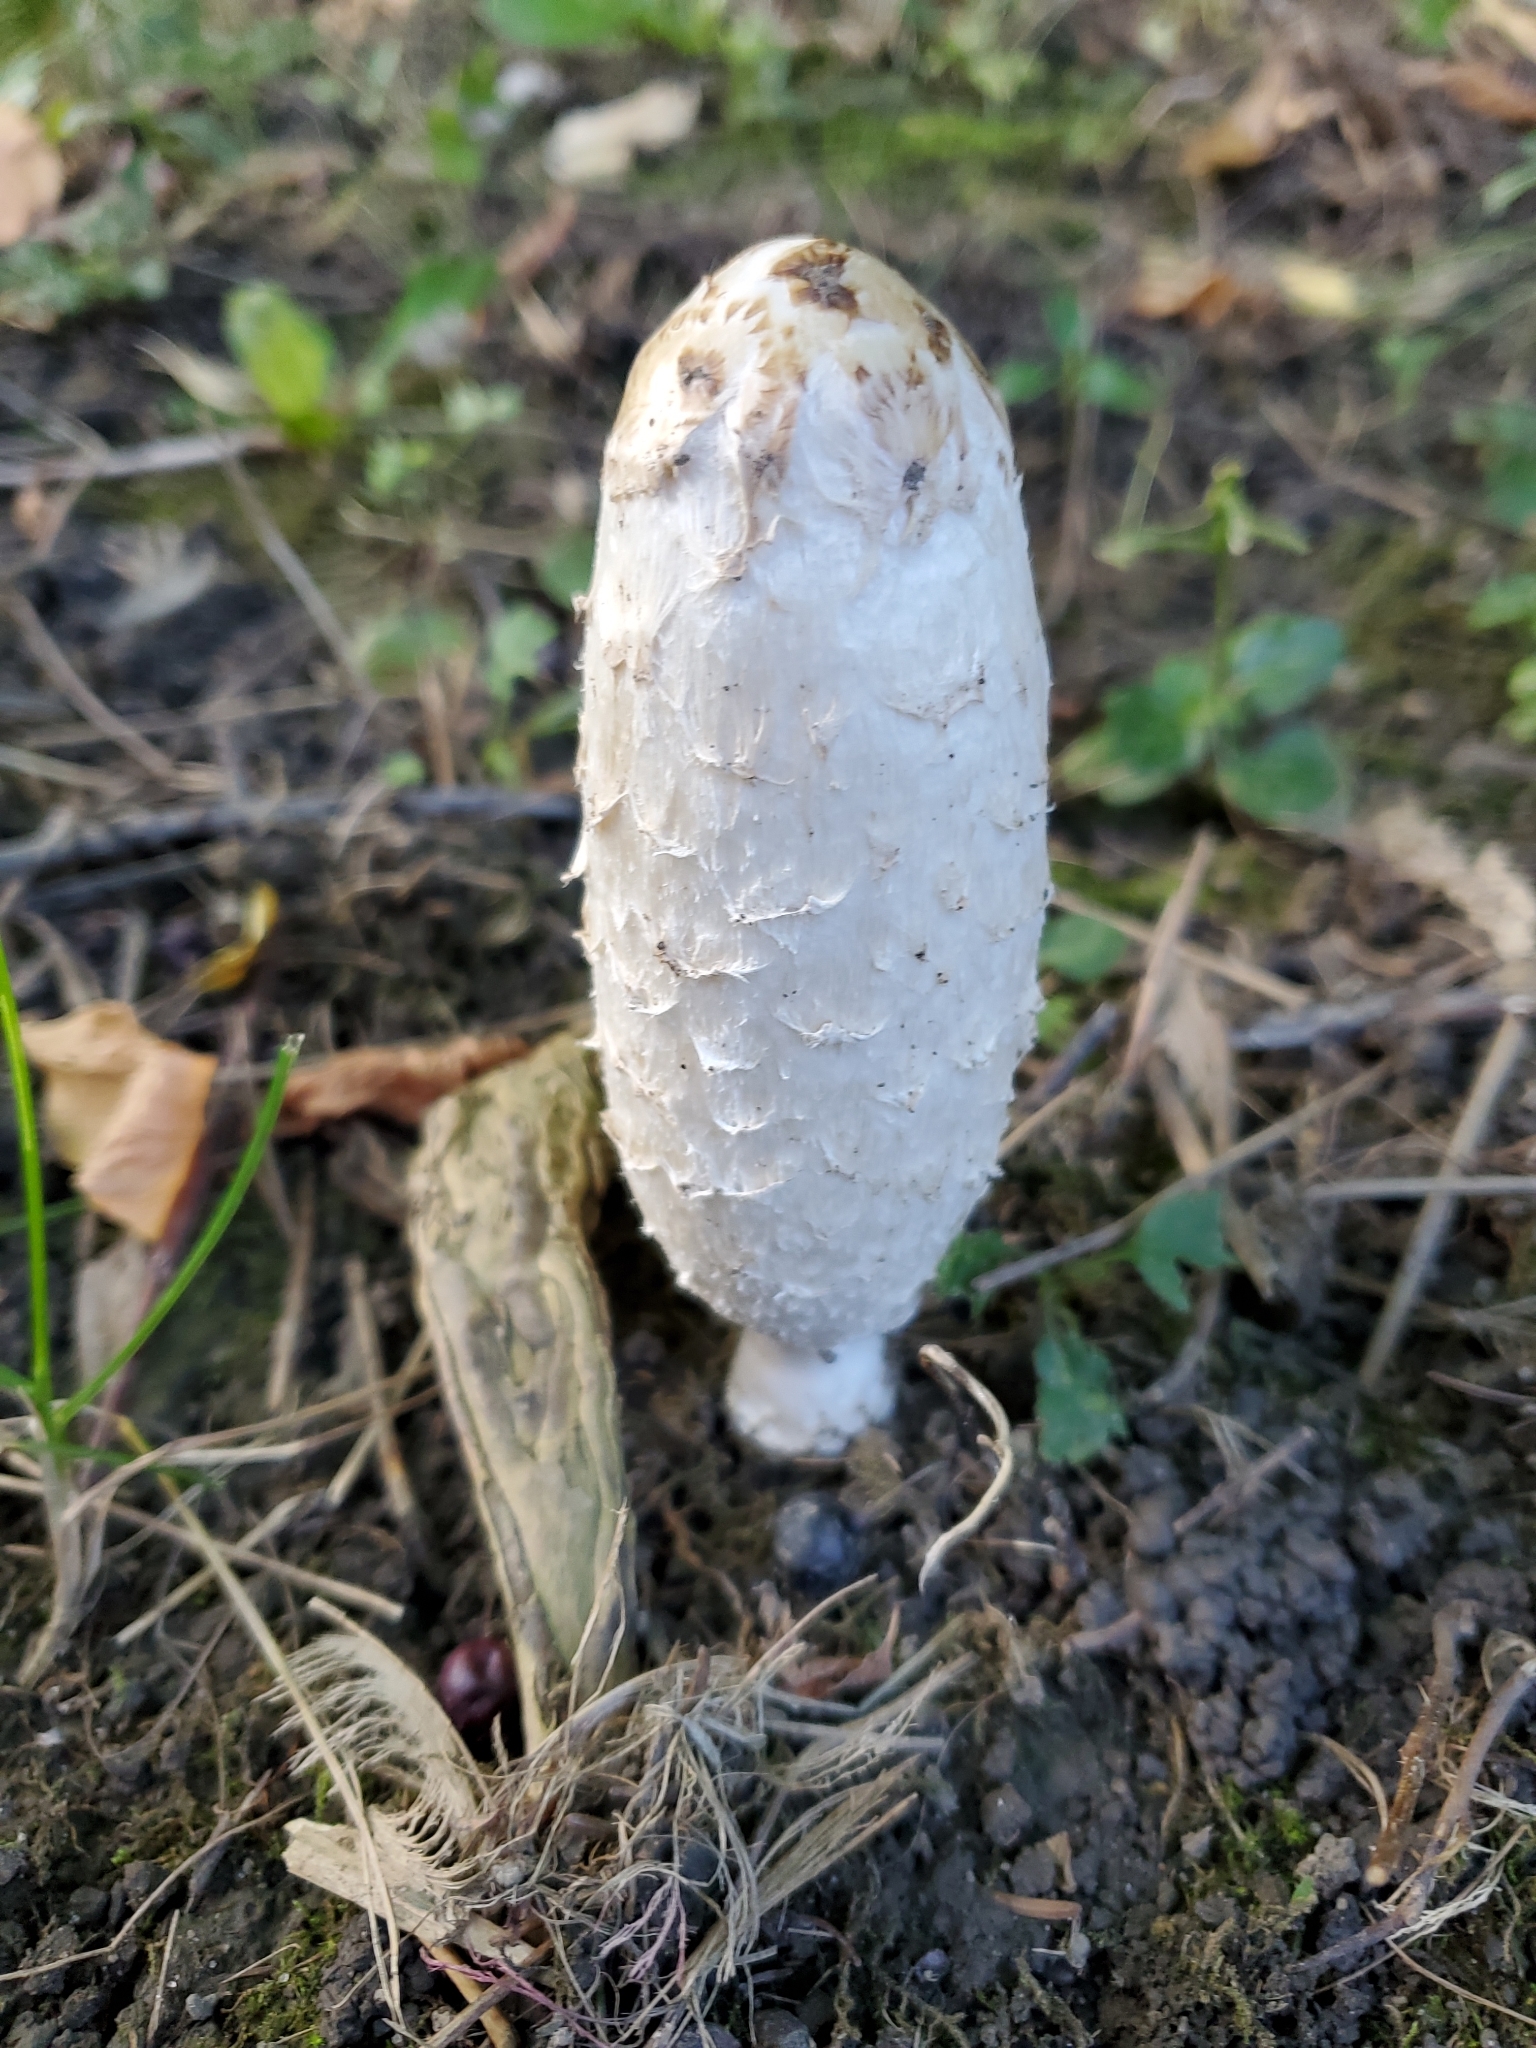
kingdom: Fungi
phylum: Basidiomycota
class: Agaricomycetes
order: Agaricales
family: Agaricaceae
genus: Coprinus
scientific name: Coprinus comatus
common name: Lawyer's wig
